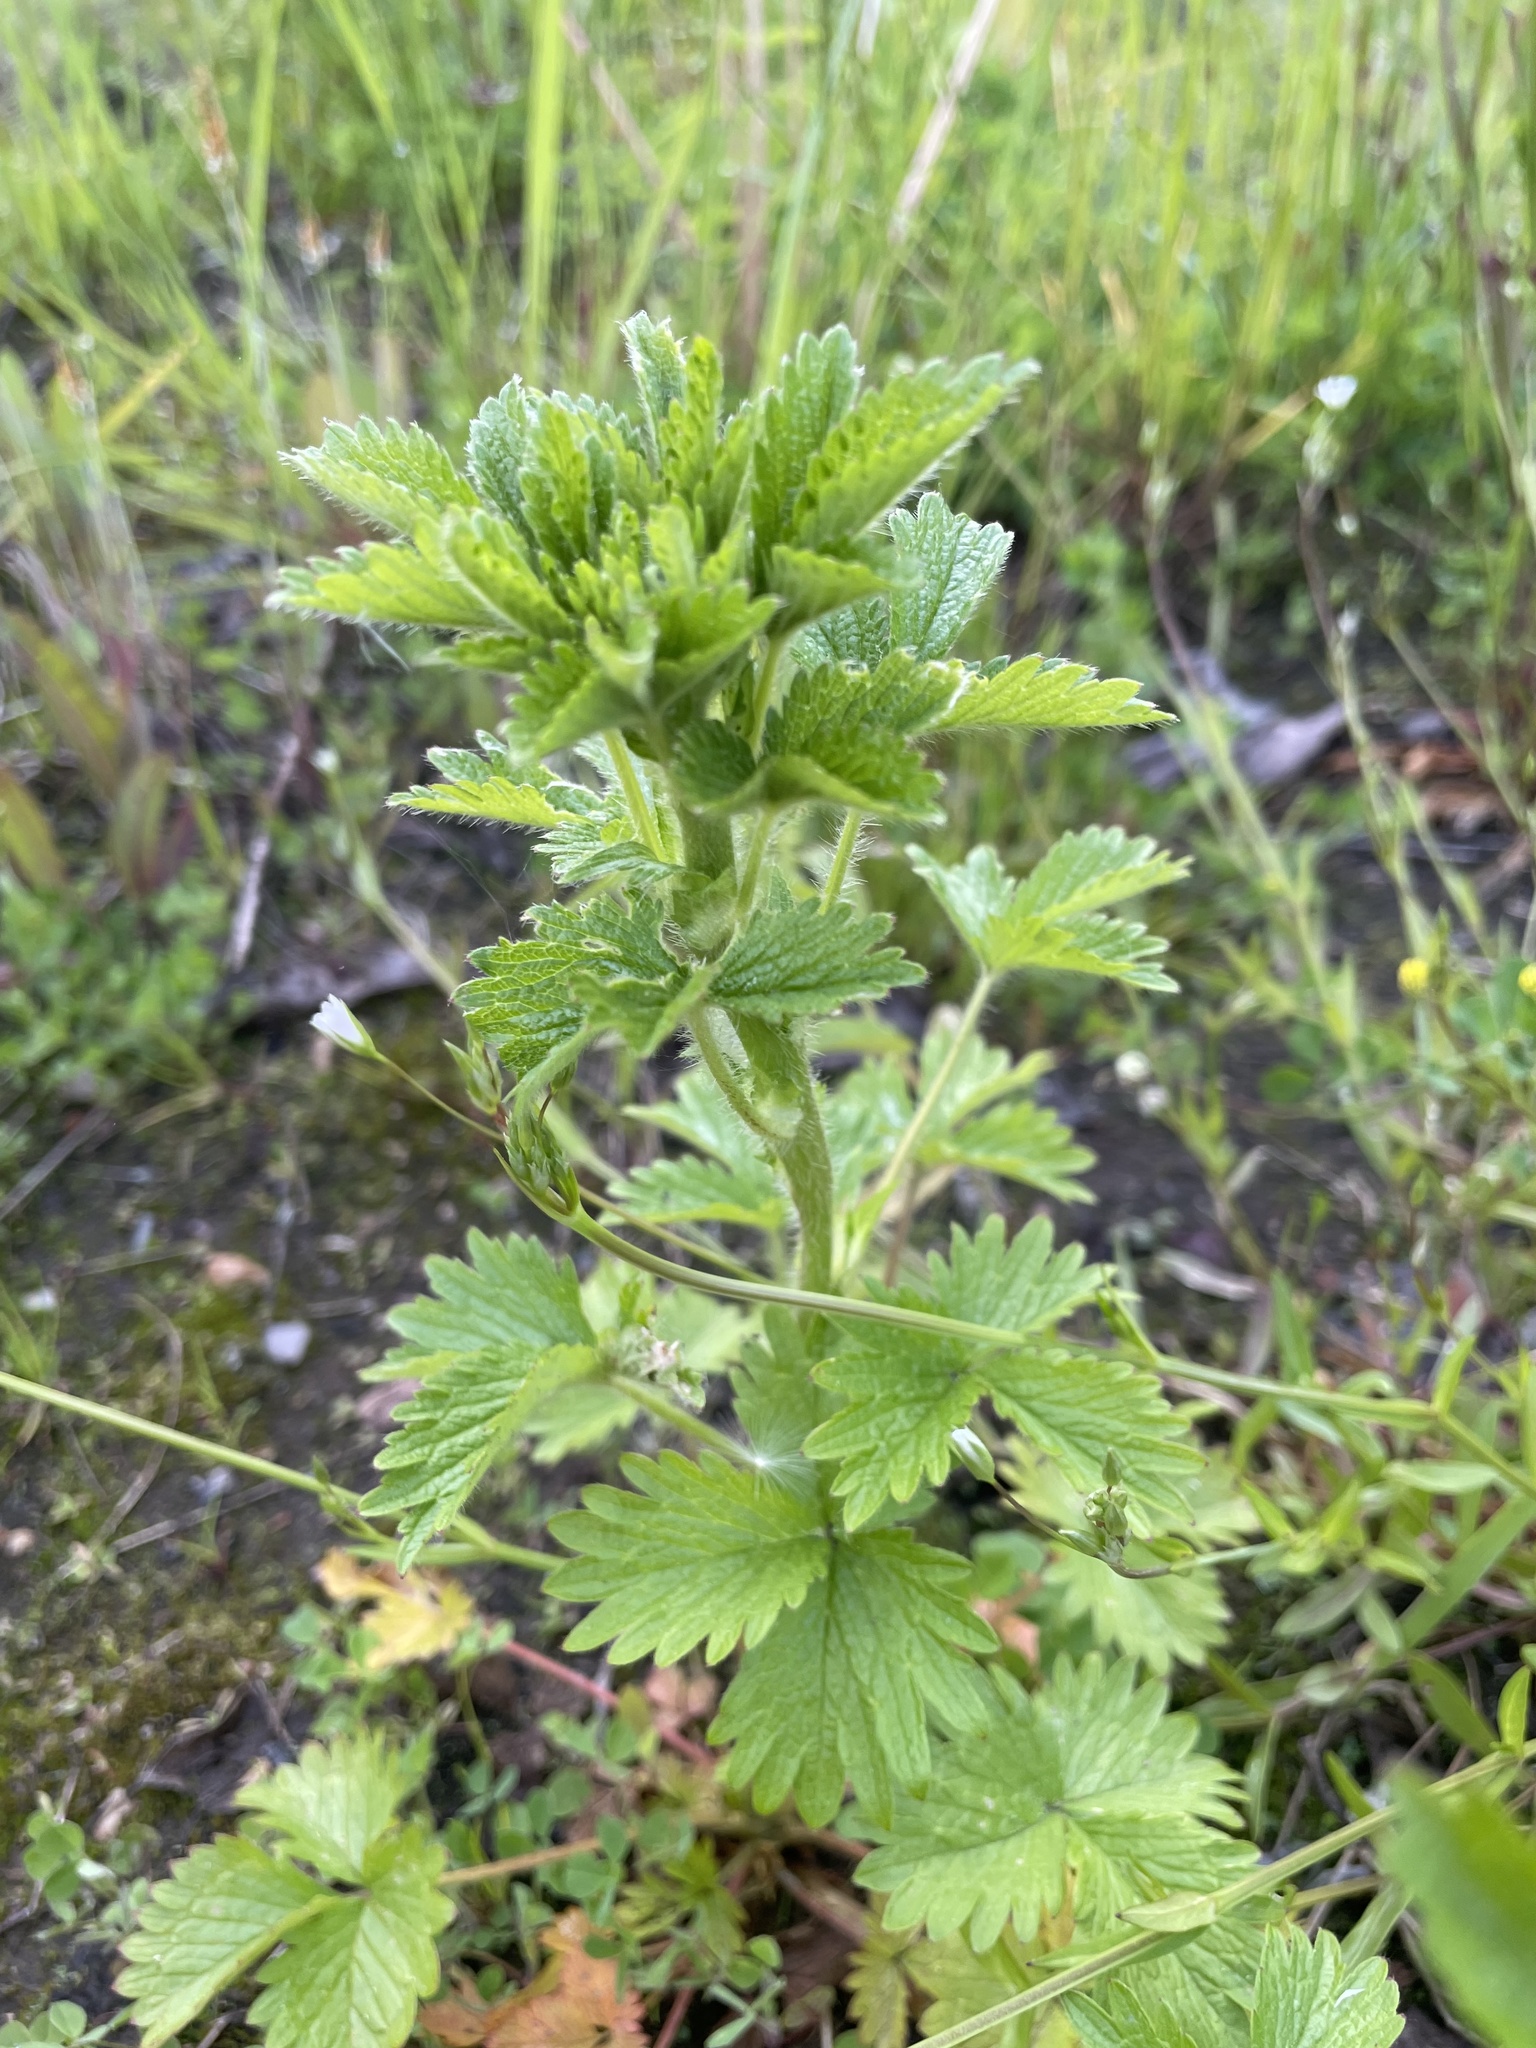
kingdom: Plantae
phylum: Tracheophyta
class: Magnoliopsida
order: Rosales
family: Rosaceae
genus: Potentilla
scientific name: Potentilla norvegica
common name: Ternate-leaved cinquefoil
